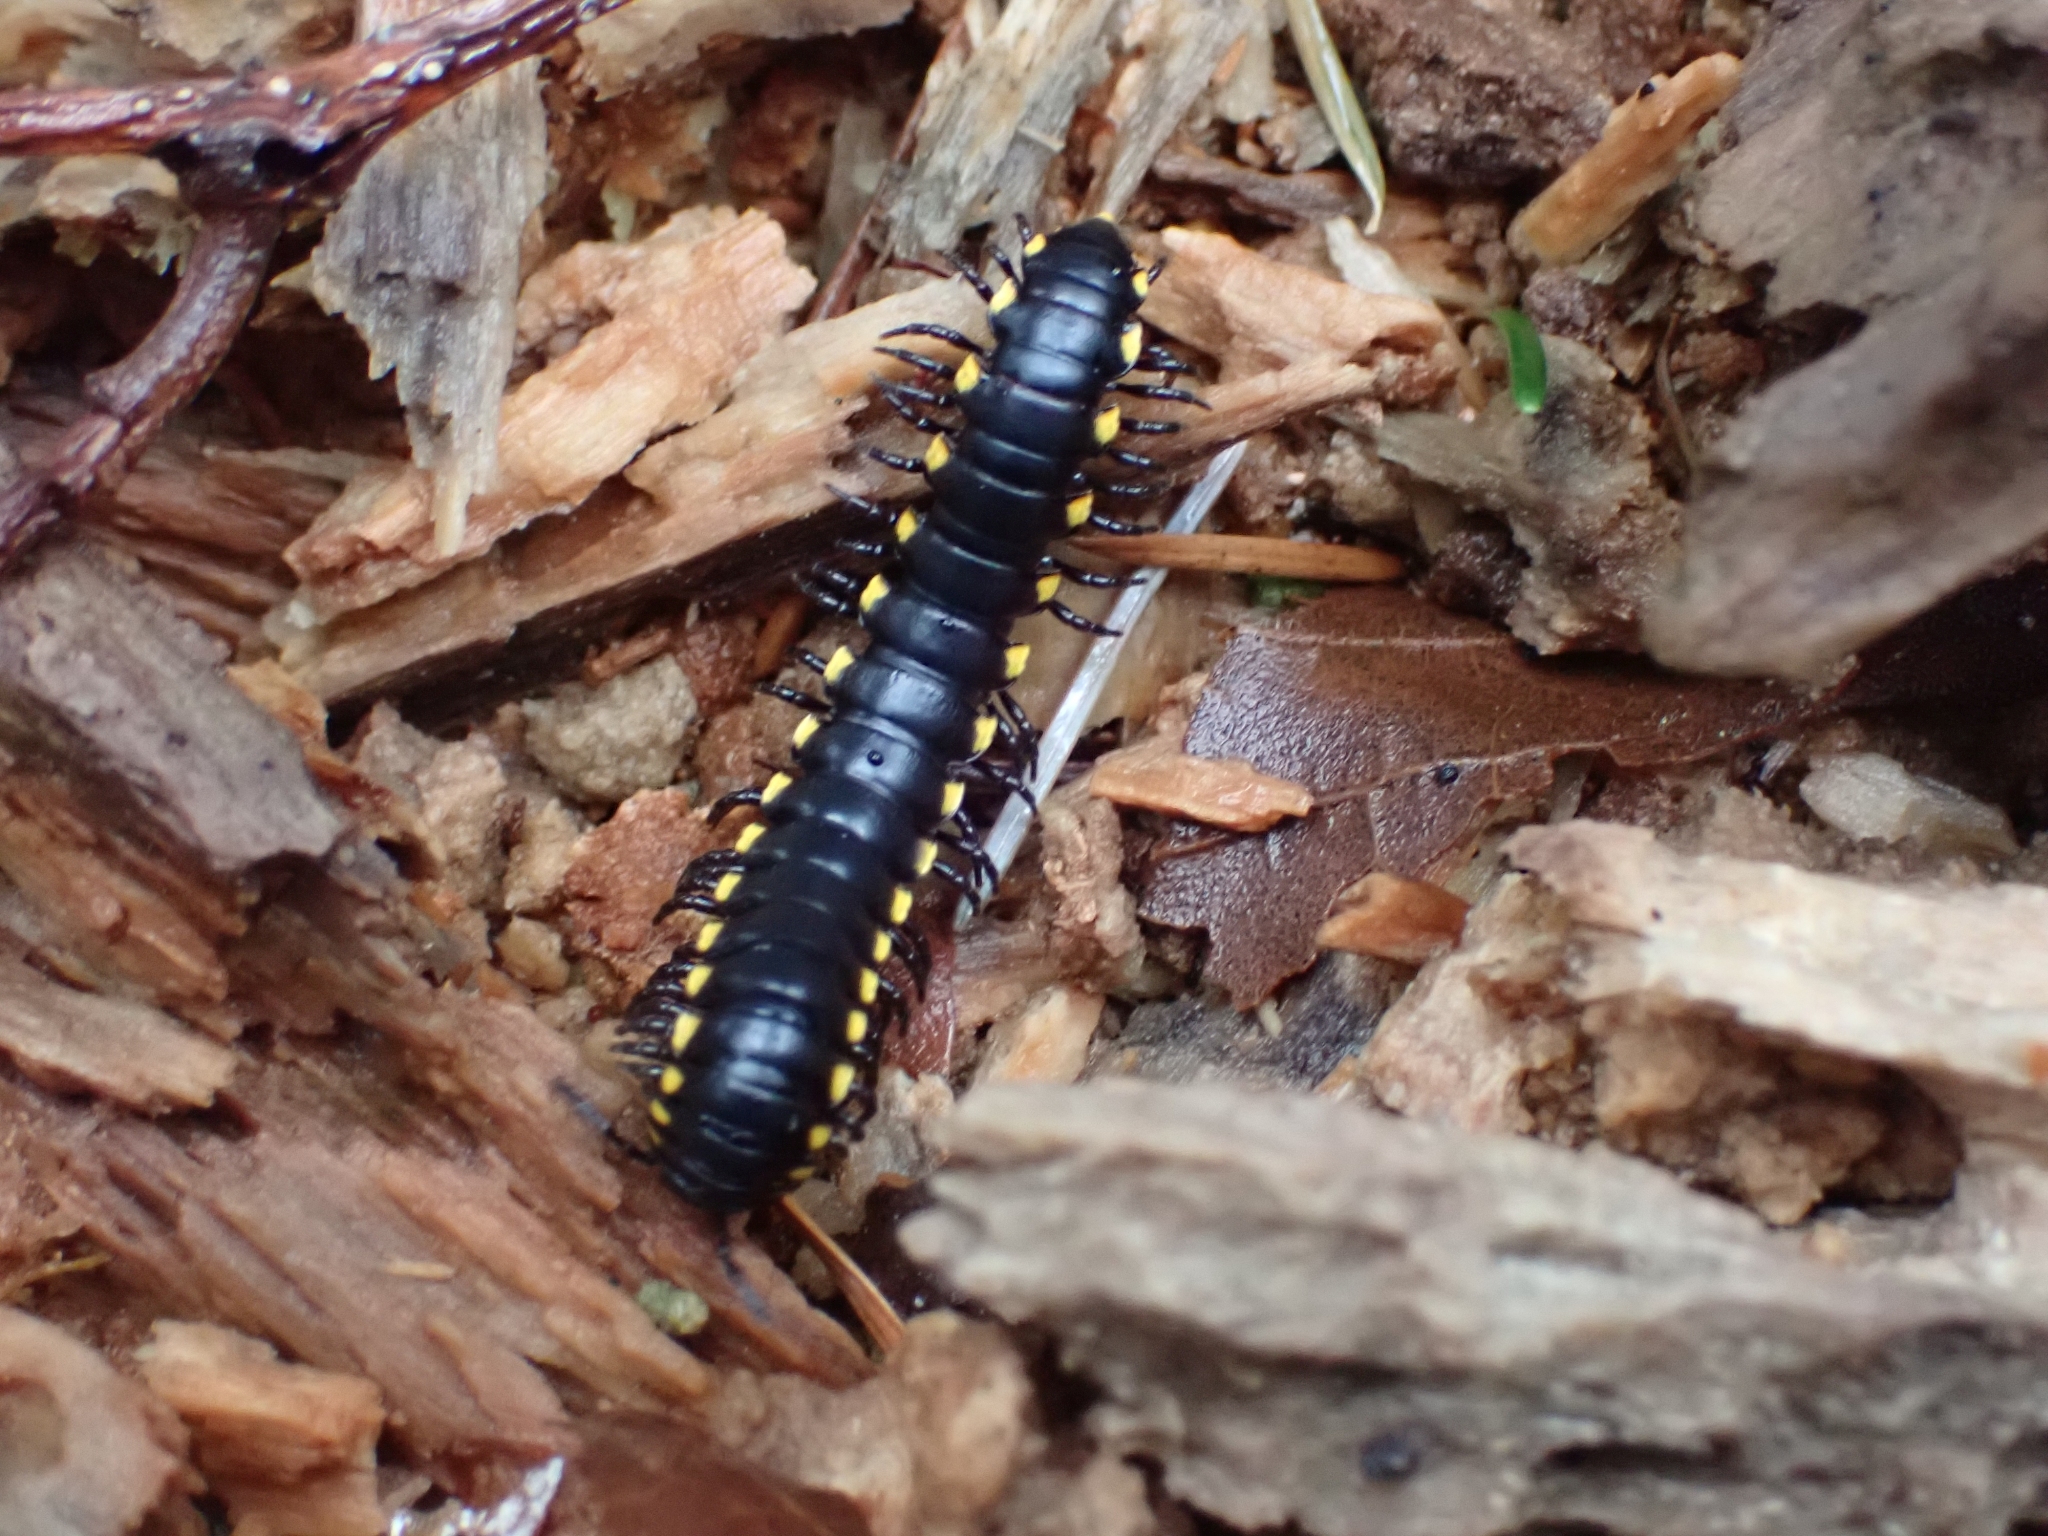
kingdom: Animalia
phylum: Arthropoda
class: Diplopoda
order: Polydesmida
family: Xystodesmidae
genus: Harpaphe
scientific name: Harpaphe haydeniana
